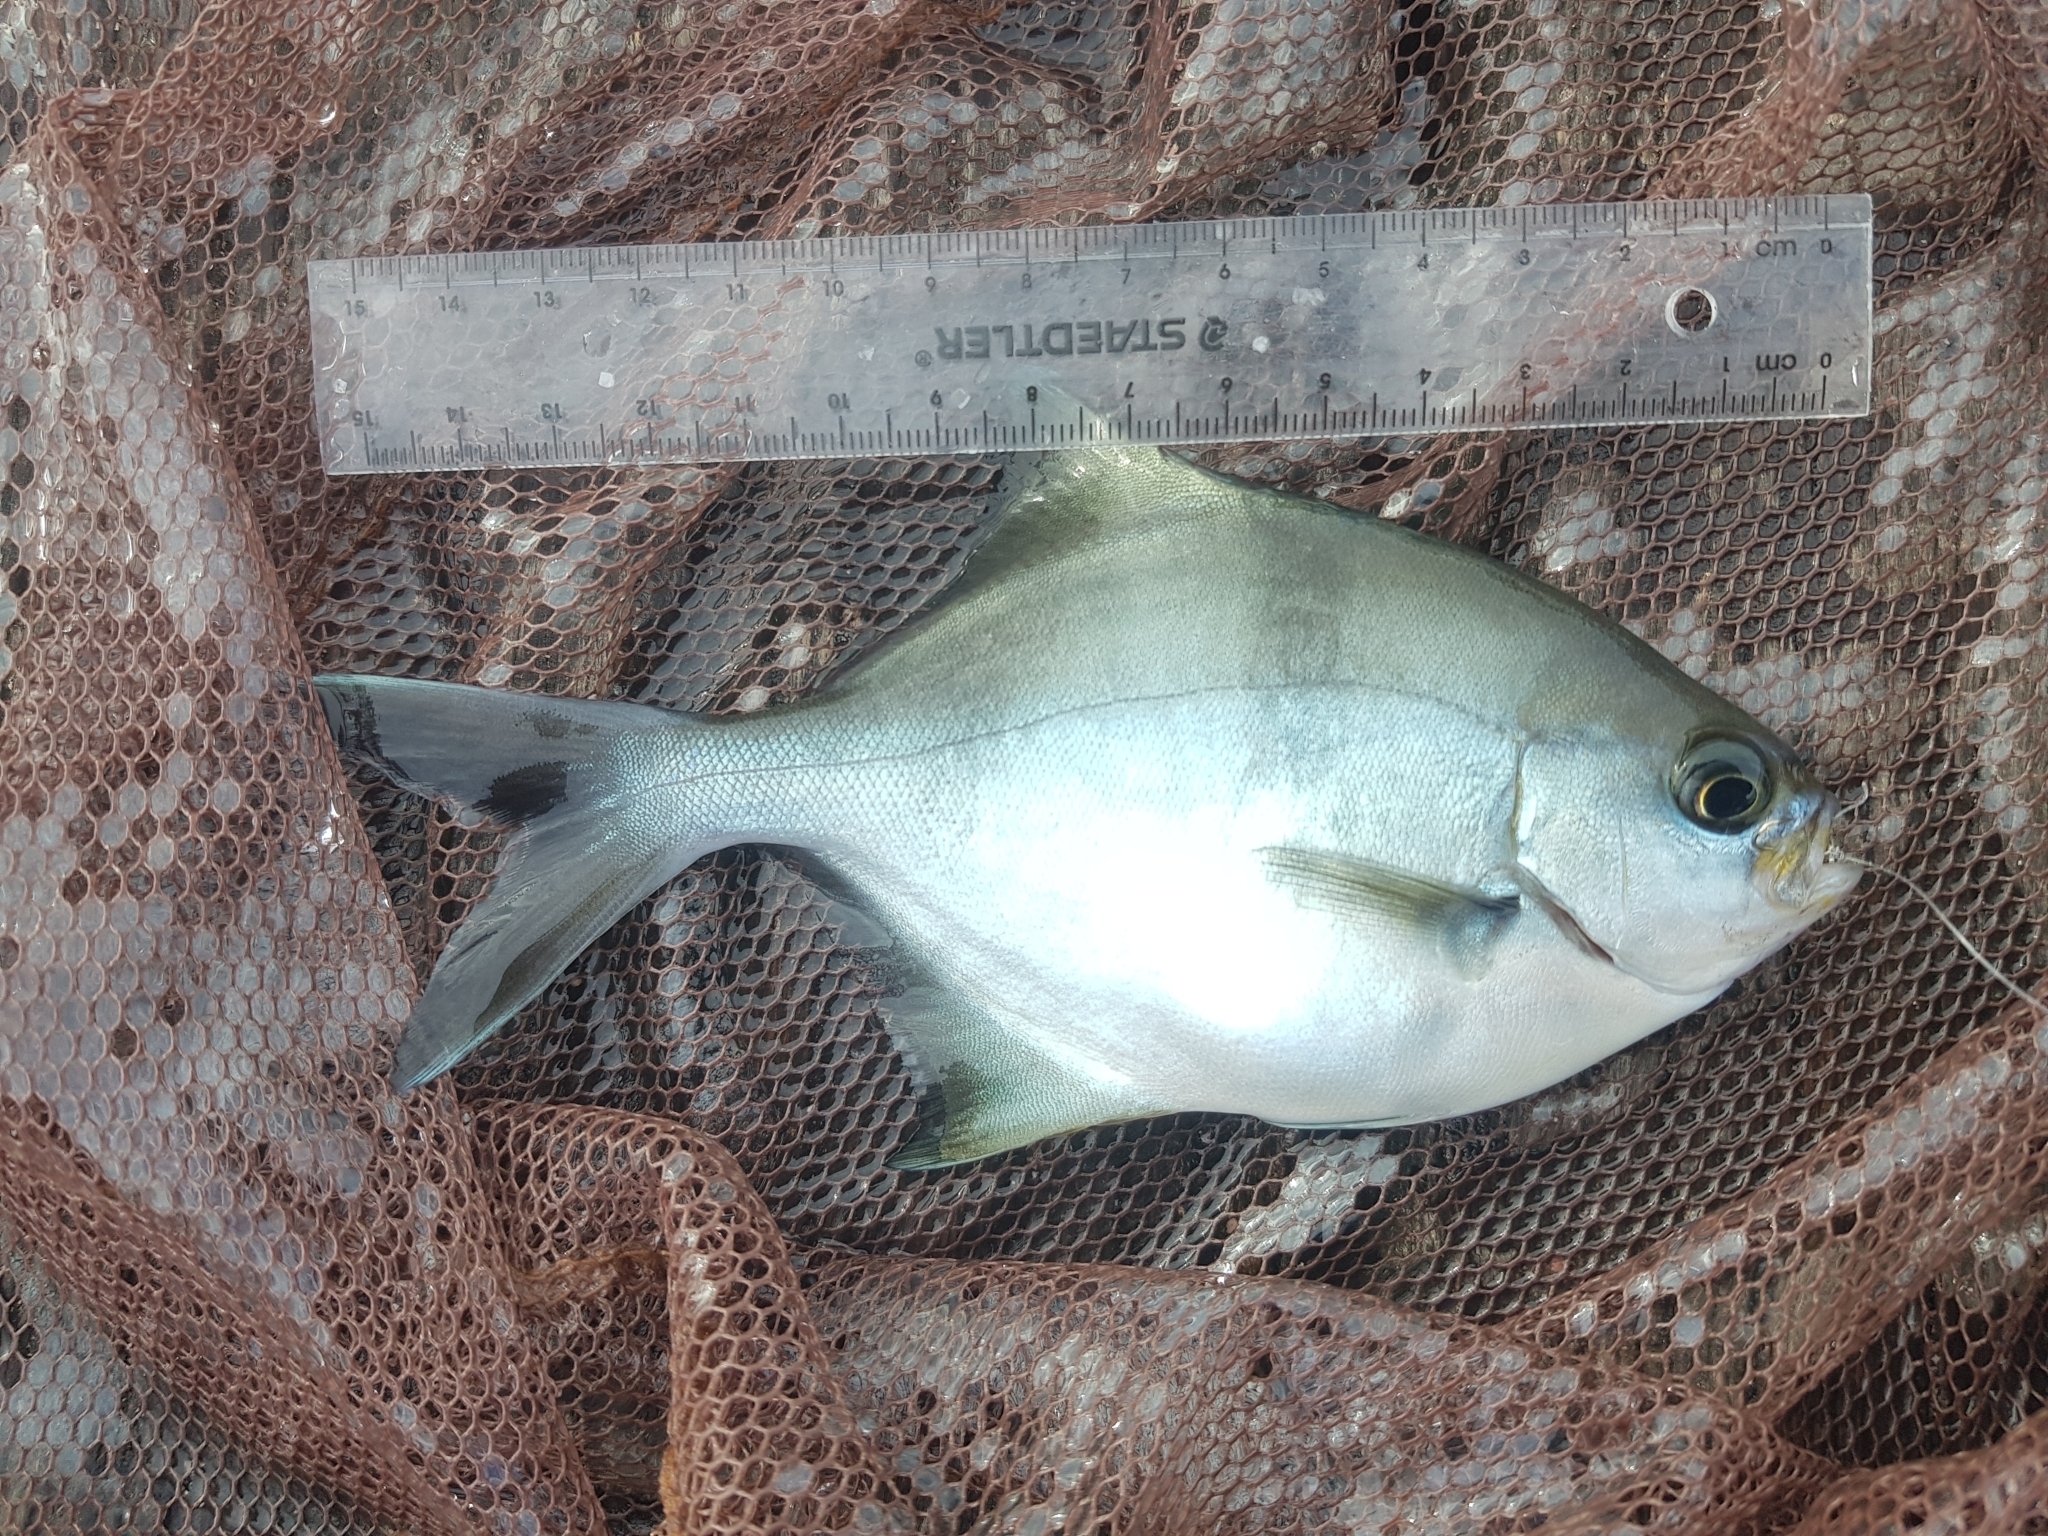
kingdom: Animalia
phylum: Chordata
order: Perciformes
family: Kyphosidae
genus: Scorpis
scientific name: Scorpis aequipinnis
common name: Sea sweep
